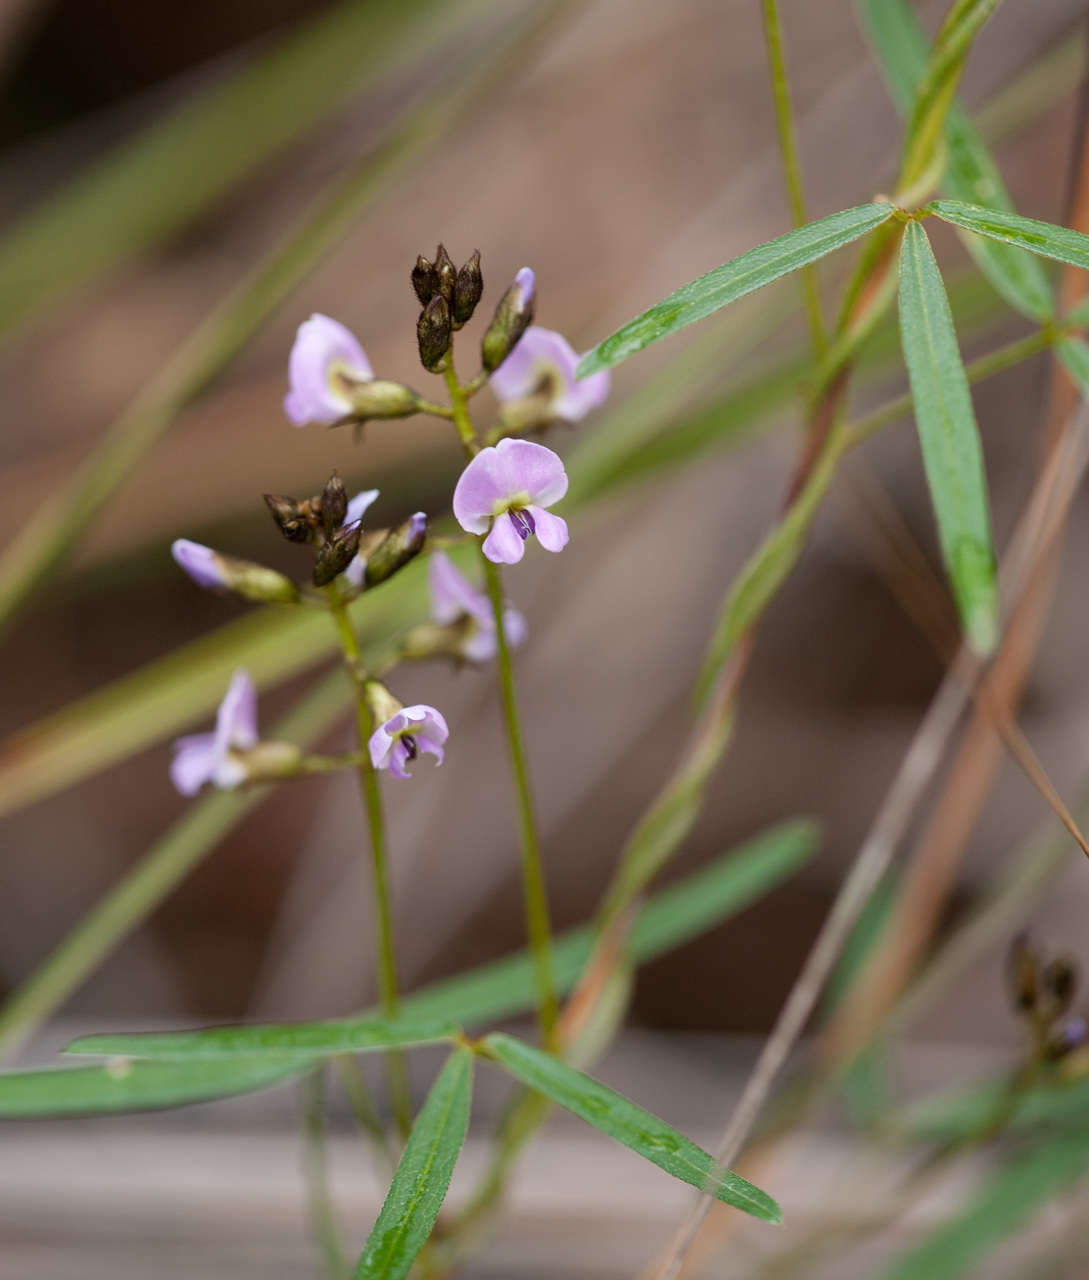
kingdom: Plantae
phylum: Tracheophyta
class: Magnoliopsida
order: Fabales
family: Fabaceae
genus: Glycine
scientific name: Glycine clandestina
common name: Twining glycine
